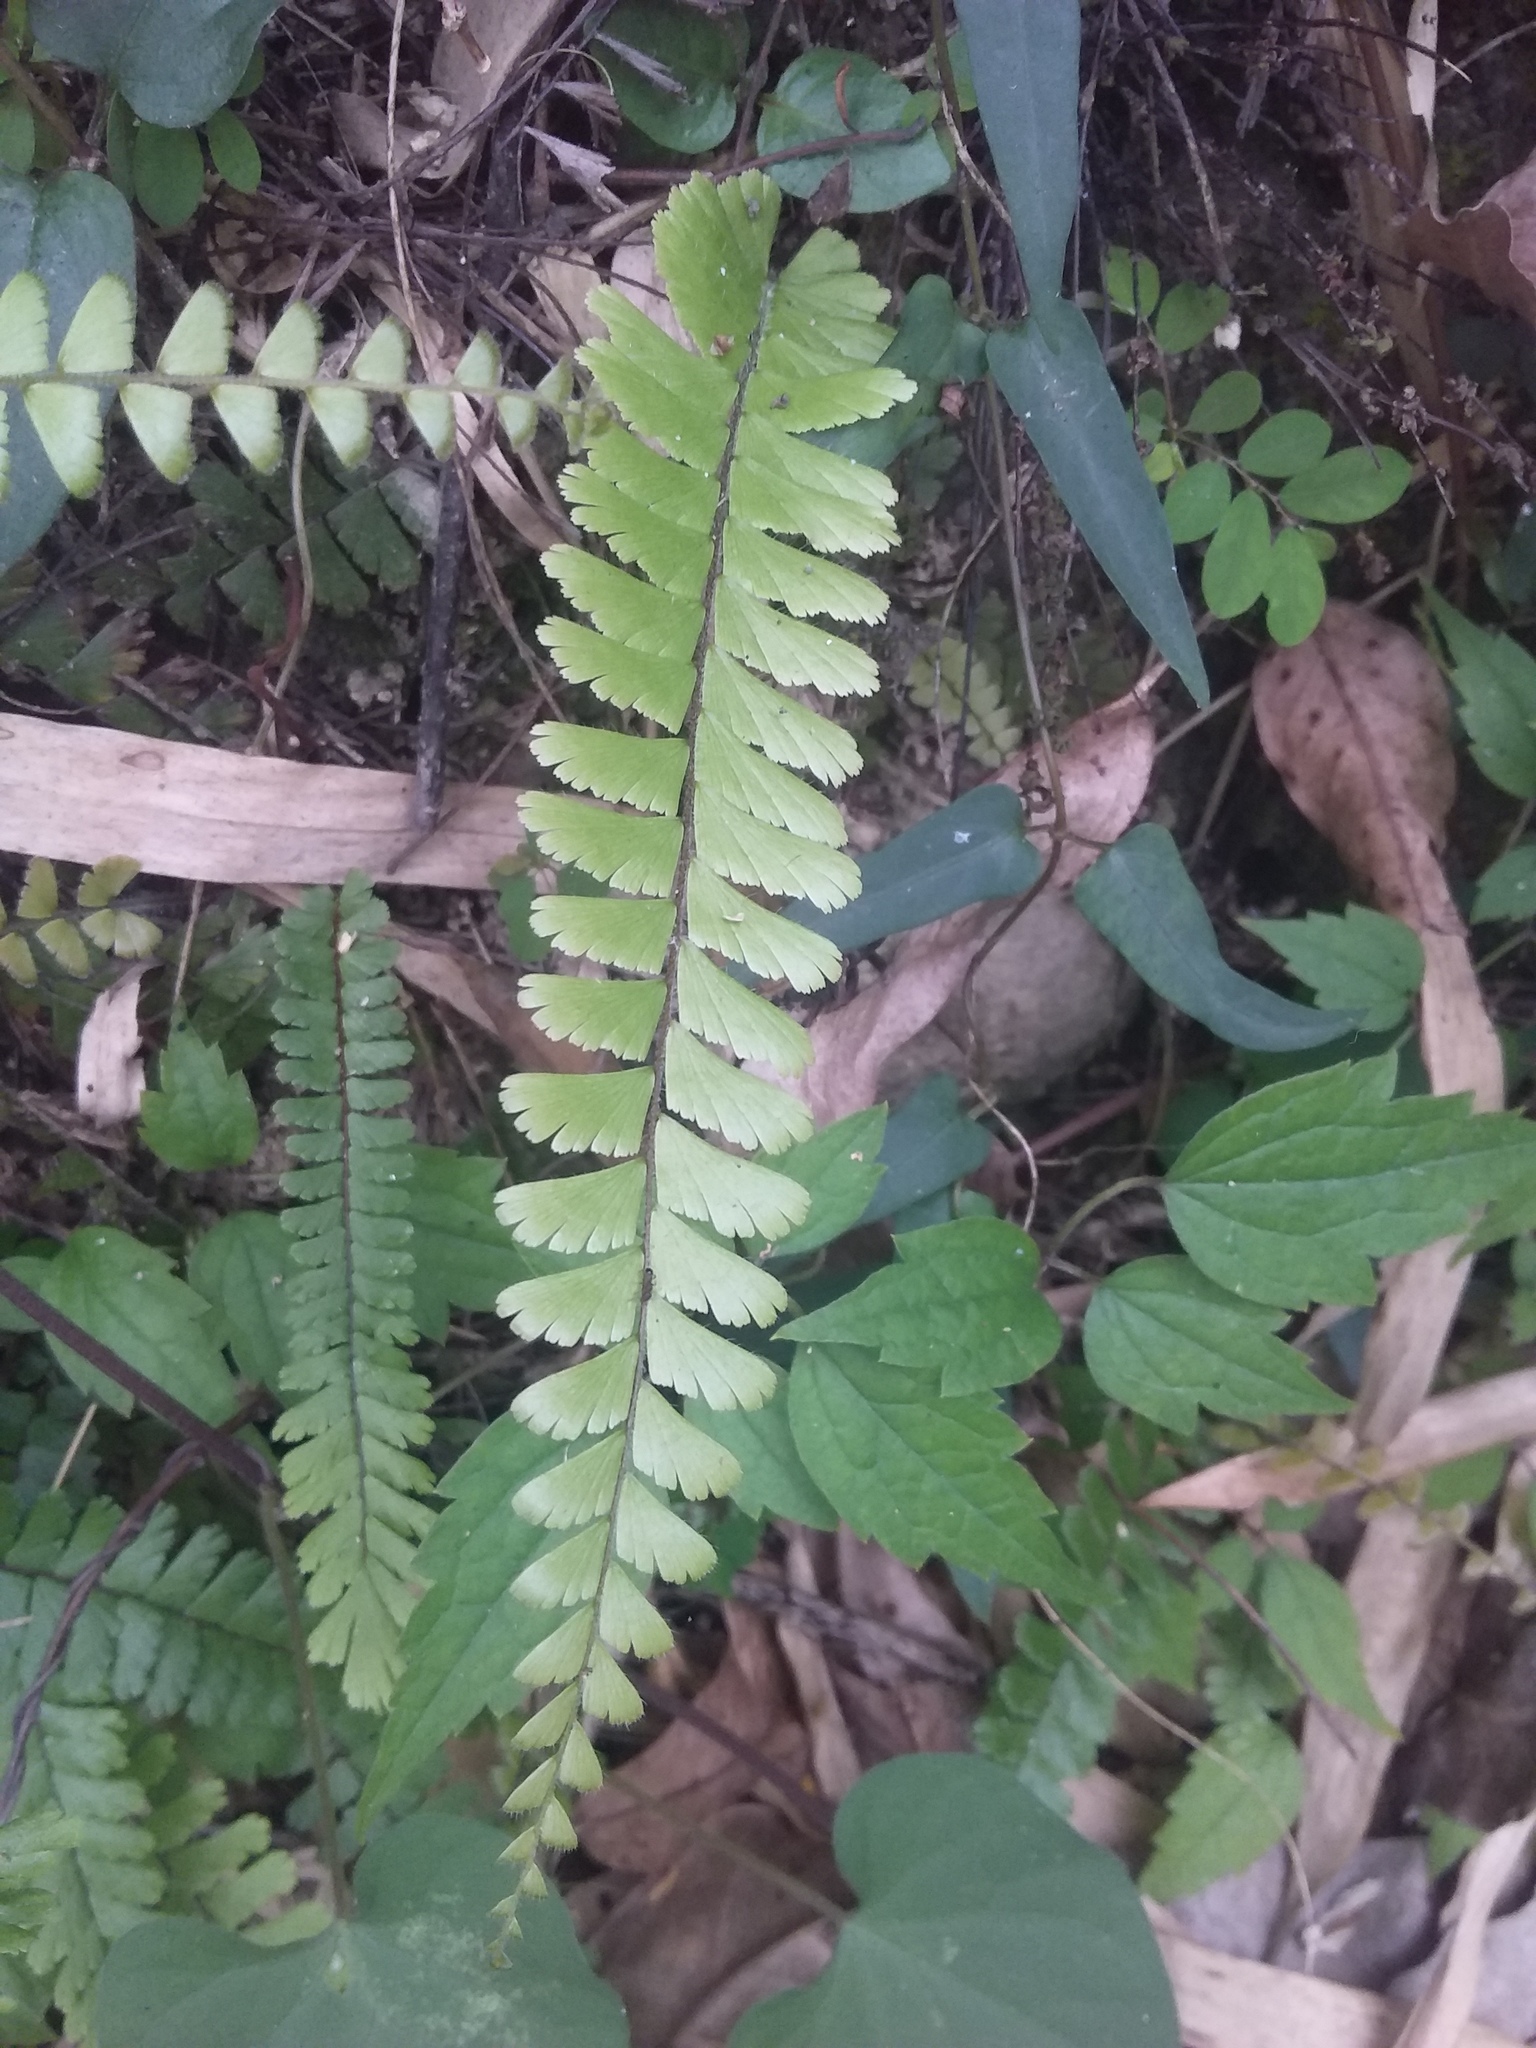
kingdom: Plantae
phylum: Tracheophyta
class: Polypodiopsida
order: Polypodiales
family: Pteridaceae
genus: Adiantum
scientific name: Adiantum caudatum
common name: Tailed maidenhair
